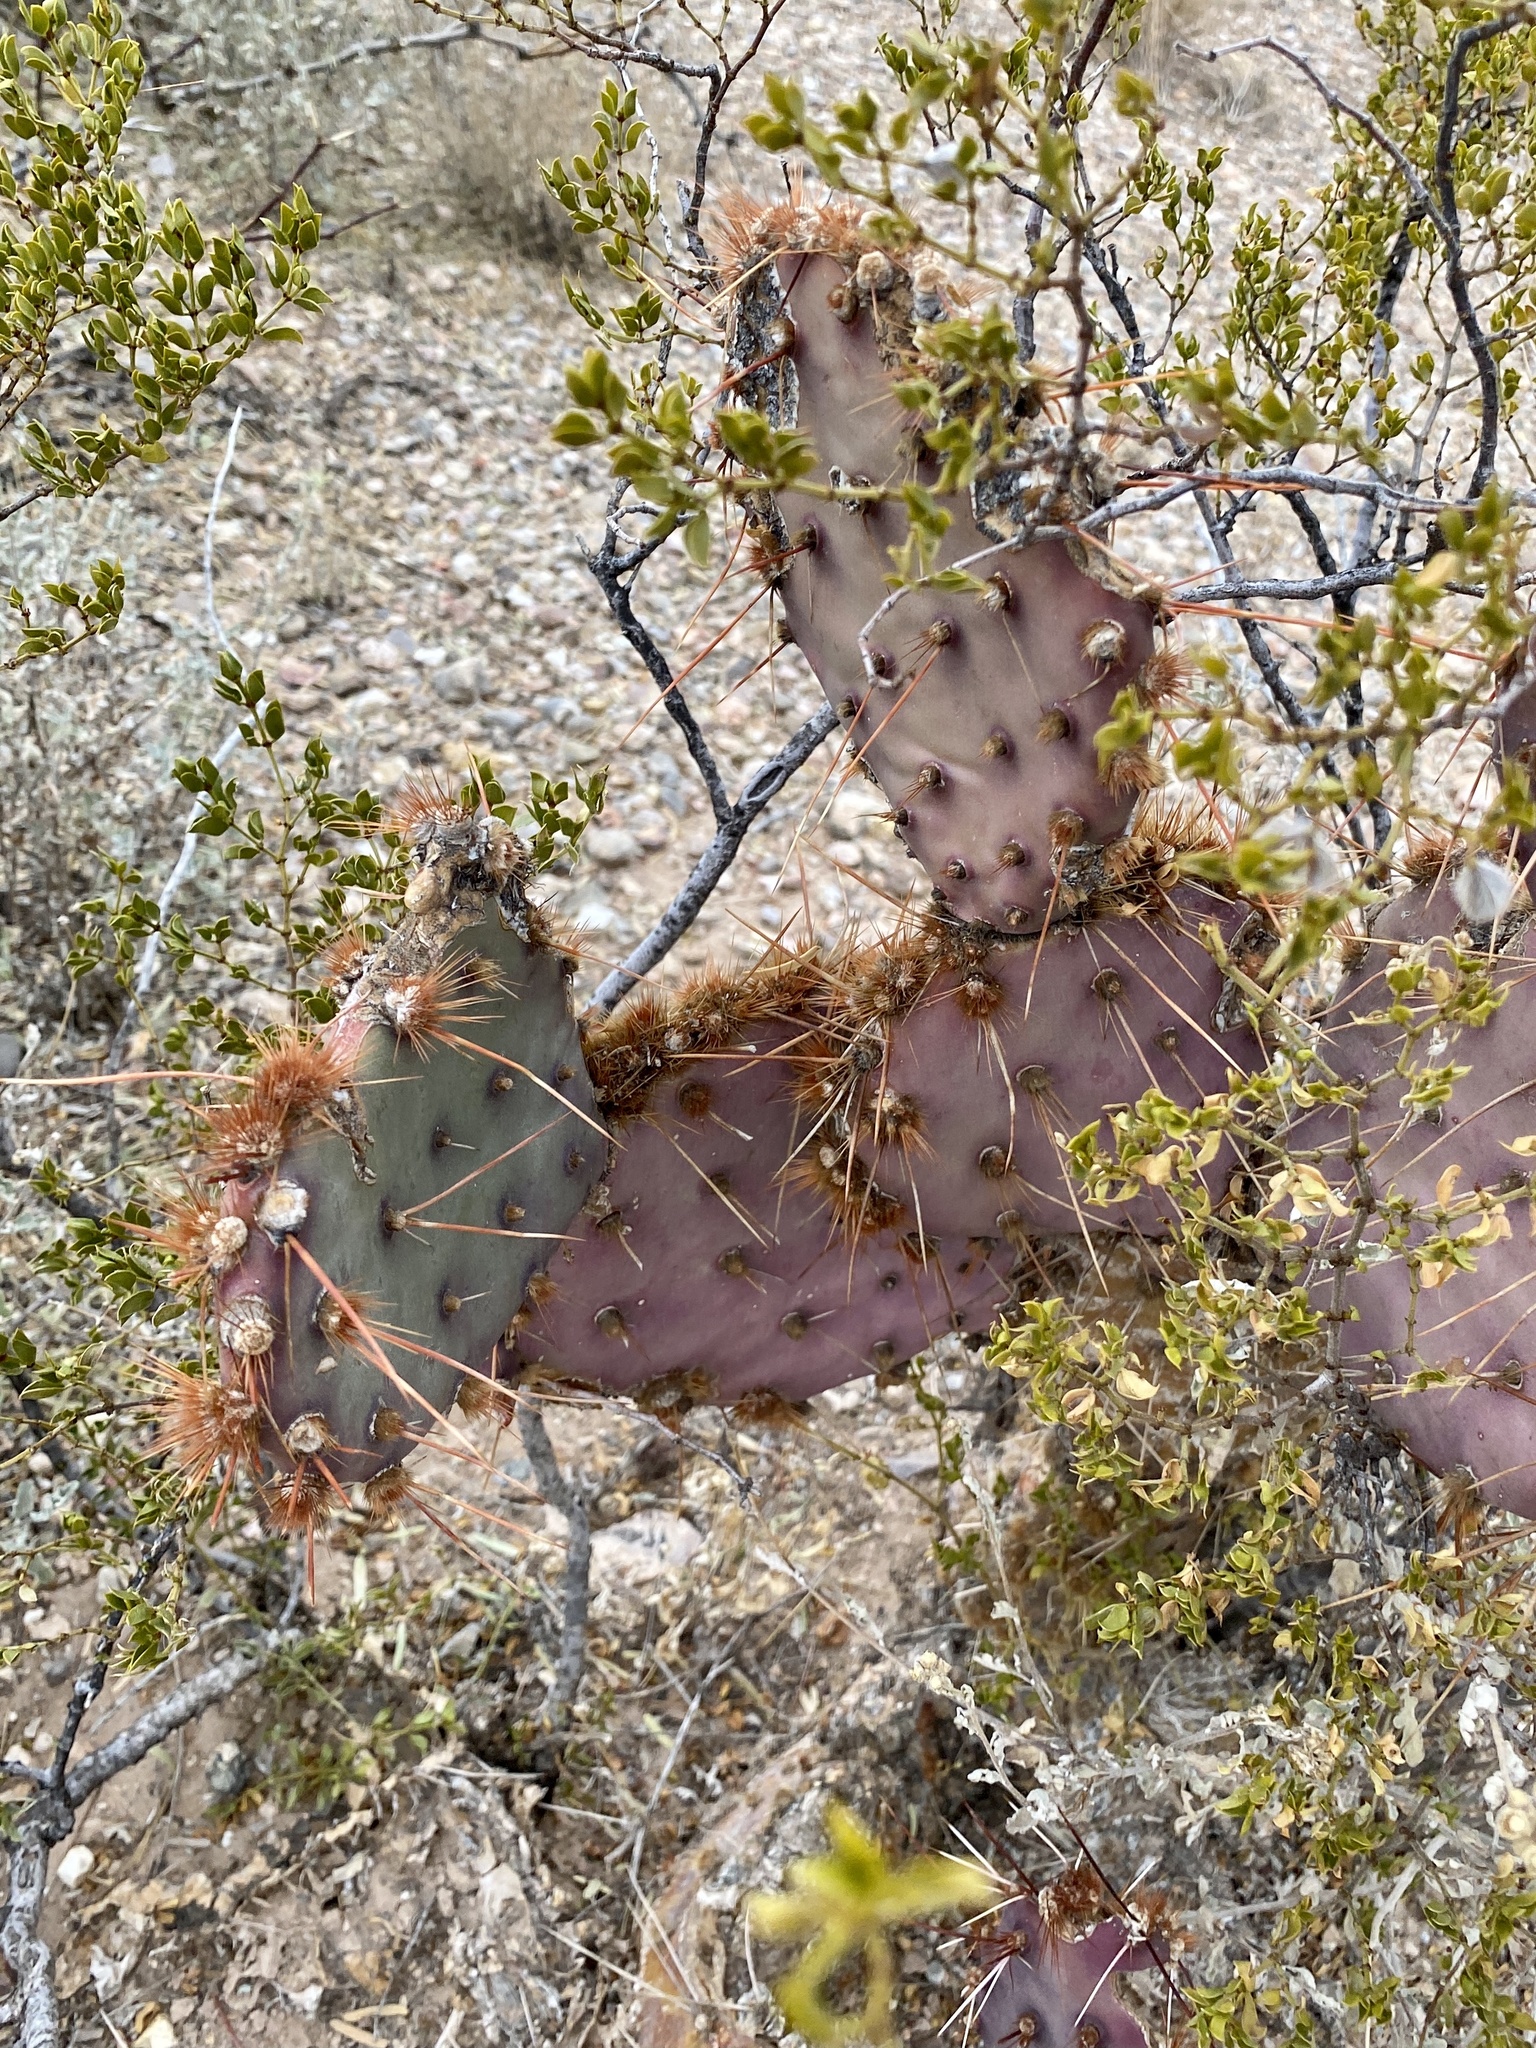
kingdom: Plantae
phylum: Tracheophyta
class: Magnoliopsida
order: Caryophyllales
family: Cactaceae
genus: Opuntia
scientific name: Opuntia macrocentra
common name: Purple prickly-pear
